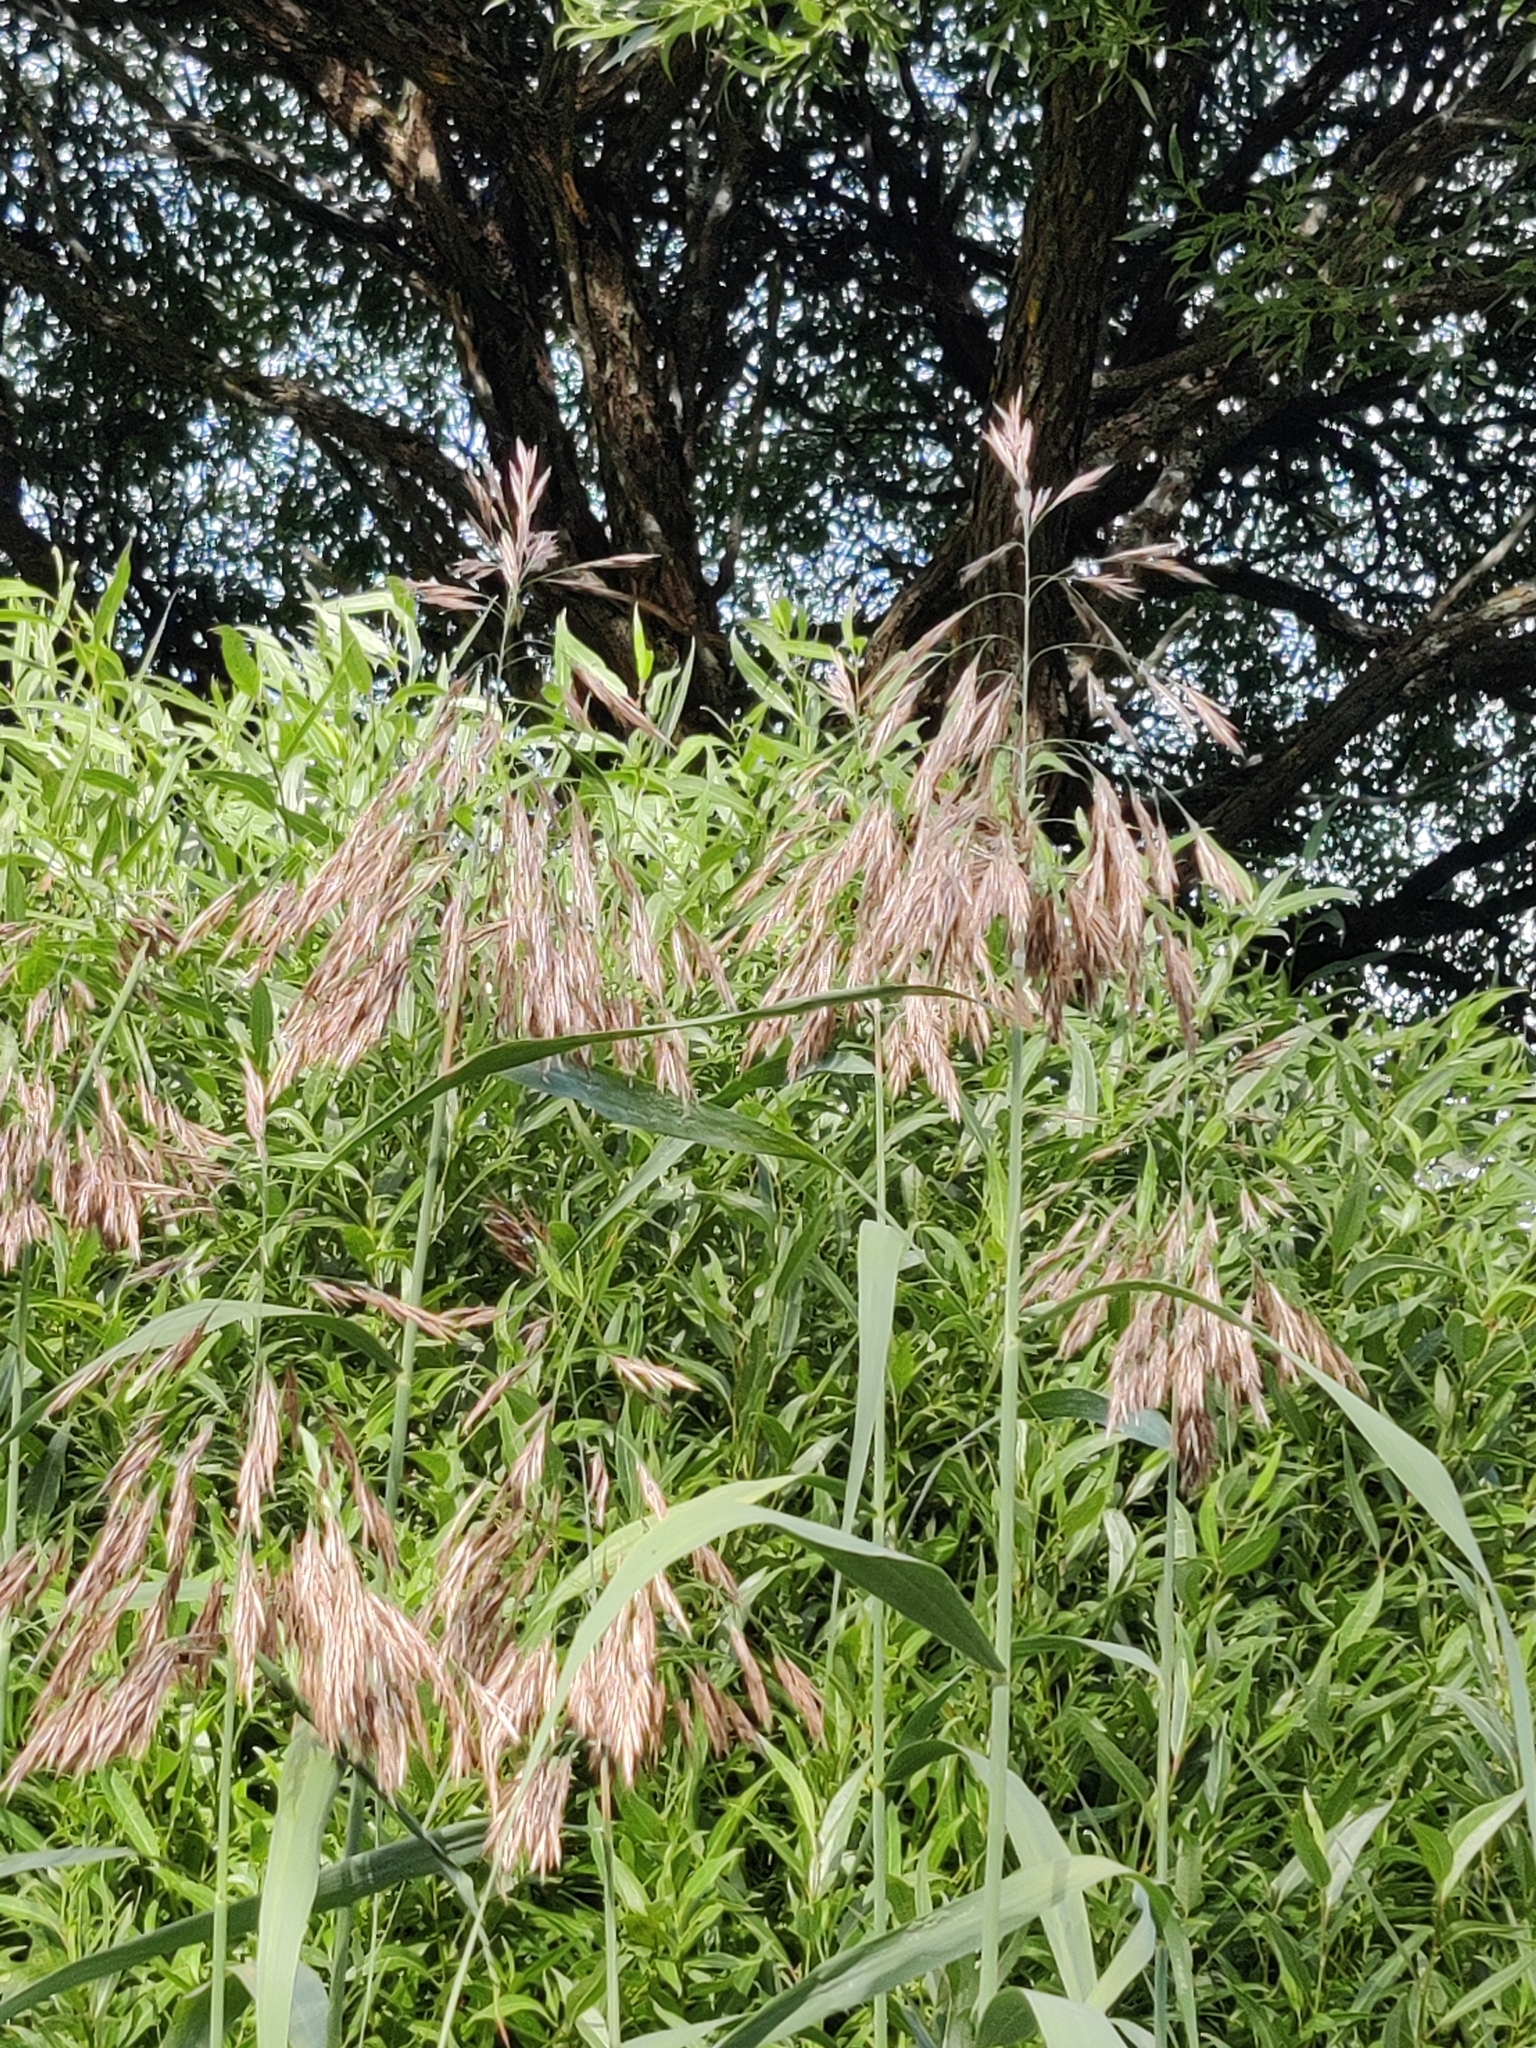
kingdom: Plantae
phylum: Tracheophyta
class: Liliopsida
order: Poales
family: Poaceae
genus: Phragmites
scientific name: Phragmites australis
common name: Common reed
